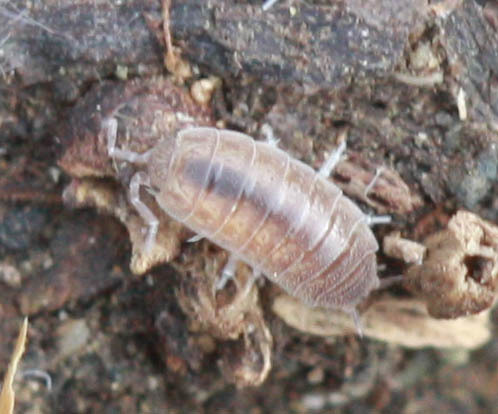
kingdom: Animalia
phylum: Arthropoda
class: Malacostraca
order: Isopoda
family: Platyarthridae
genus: Niambia
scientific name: Niambia capensis
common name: Isopod
